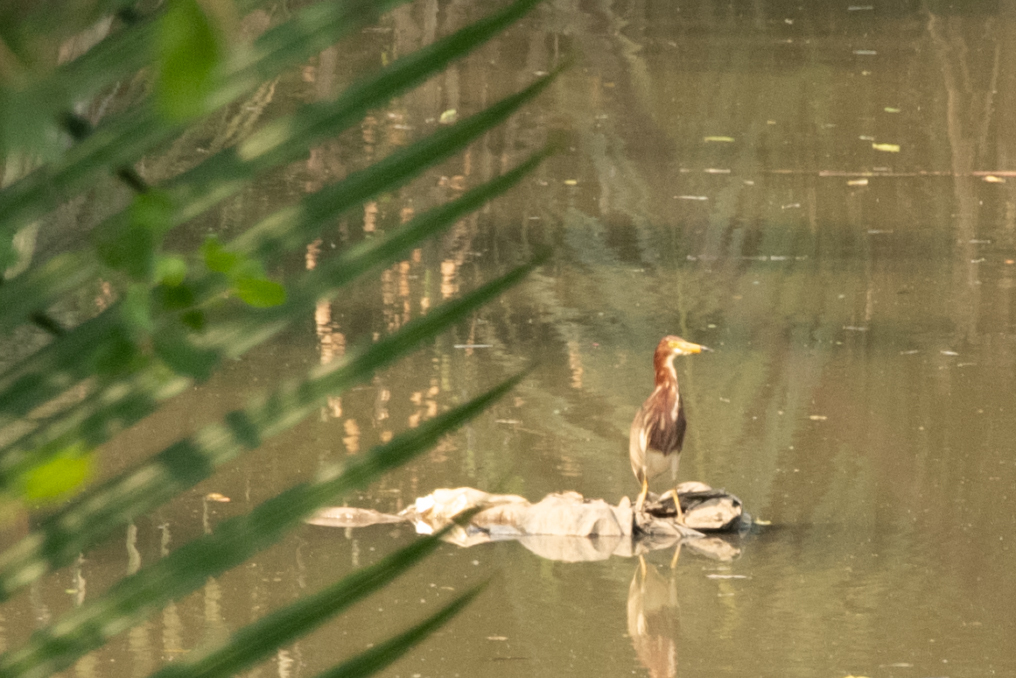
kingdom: Animalia
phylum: Chordata
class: Aves
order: Pelecaniformes
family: Ardeidae
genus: Ardeola
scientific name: Ardeola bacchus
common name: Chinese pond heron
